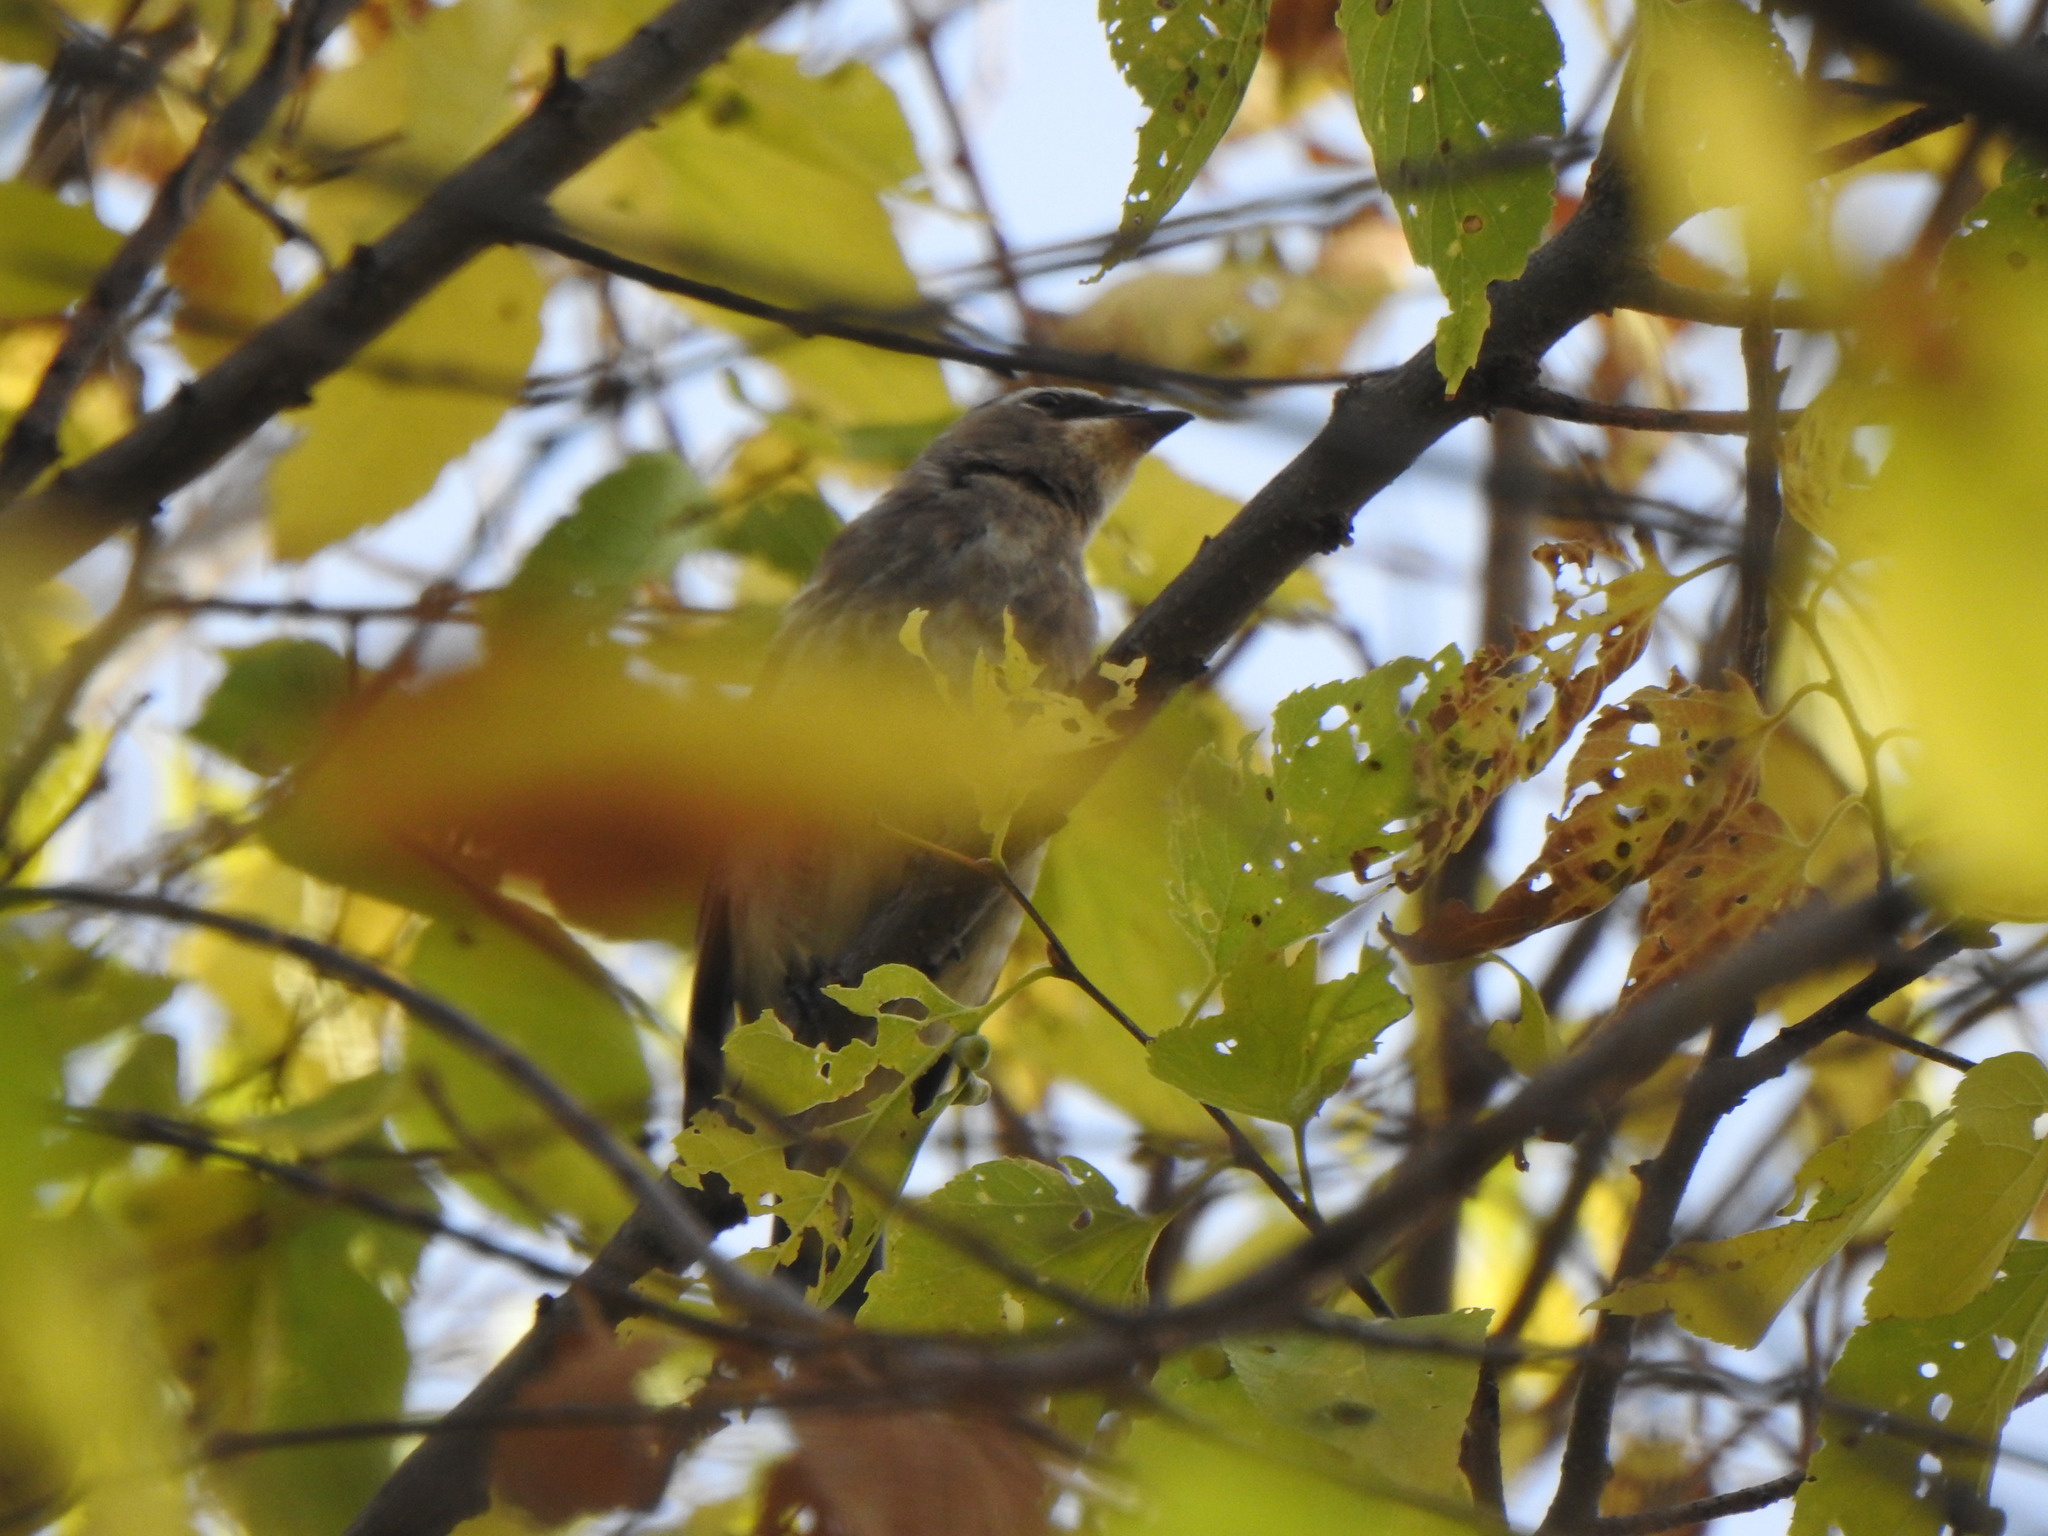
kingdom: Animalia
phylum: Chordata
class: Aves
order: Passeriformes
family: Bombycillidae
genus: Bombycilla
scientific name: Bombycilla cedrorum
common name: Cedar waxwing
